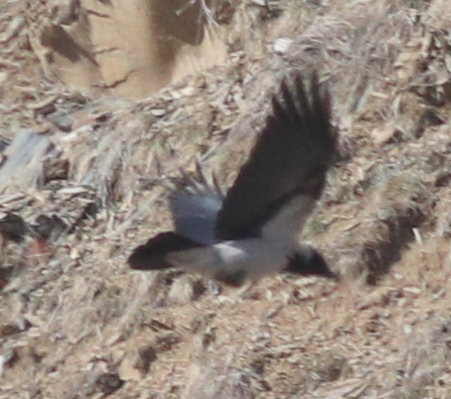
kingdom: Animalia
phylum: Chordata
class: Aves
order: Passeriformes
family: Corvidae
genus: Corvus
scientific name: Corvus cornix
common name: Hooded crow
